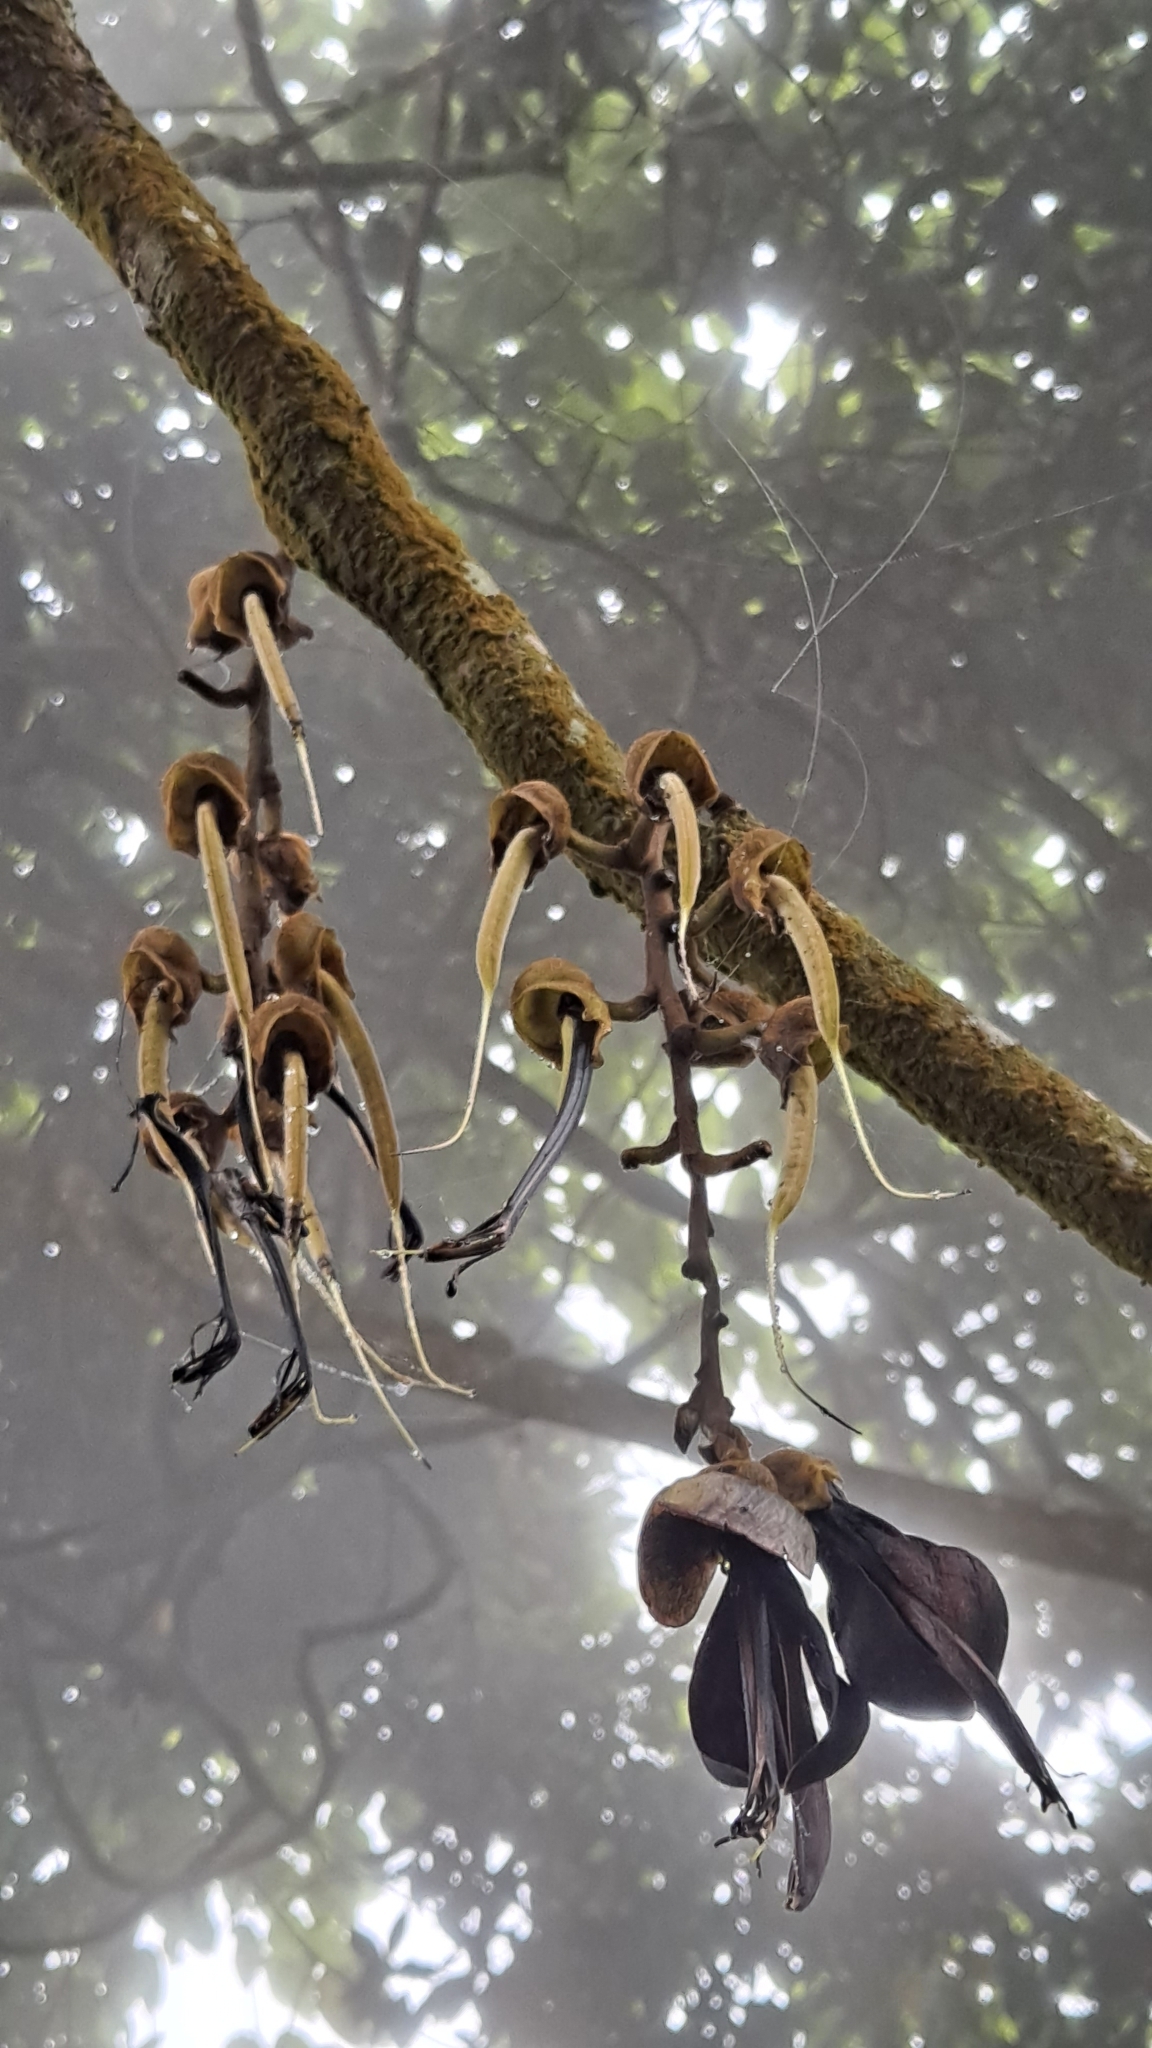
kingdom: Plantae
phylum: Tracheophyta
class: Magnoliopsida
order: Fabales
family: Fabaceae
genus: Mucuna
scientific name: Mucuna macrocarpa
